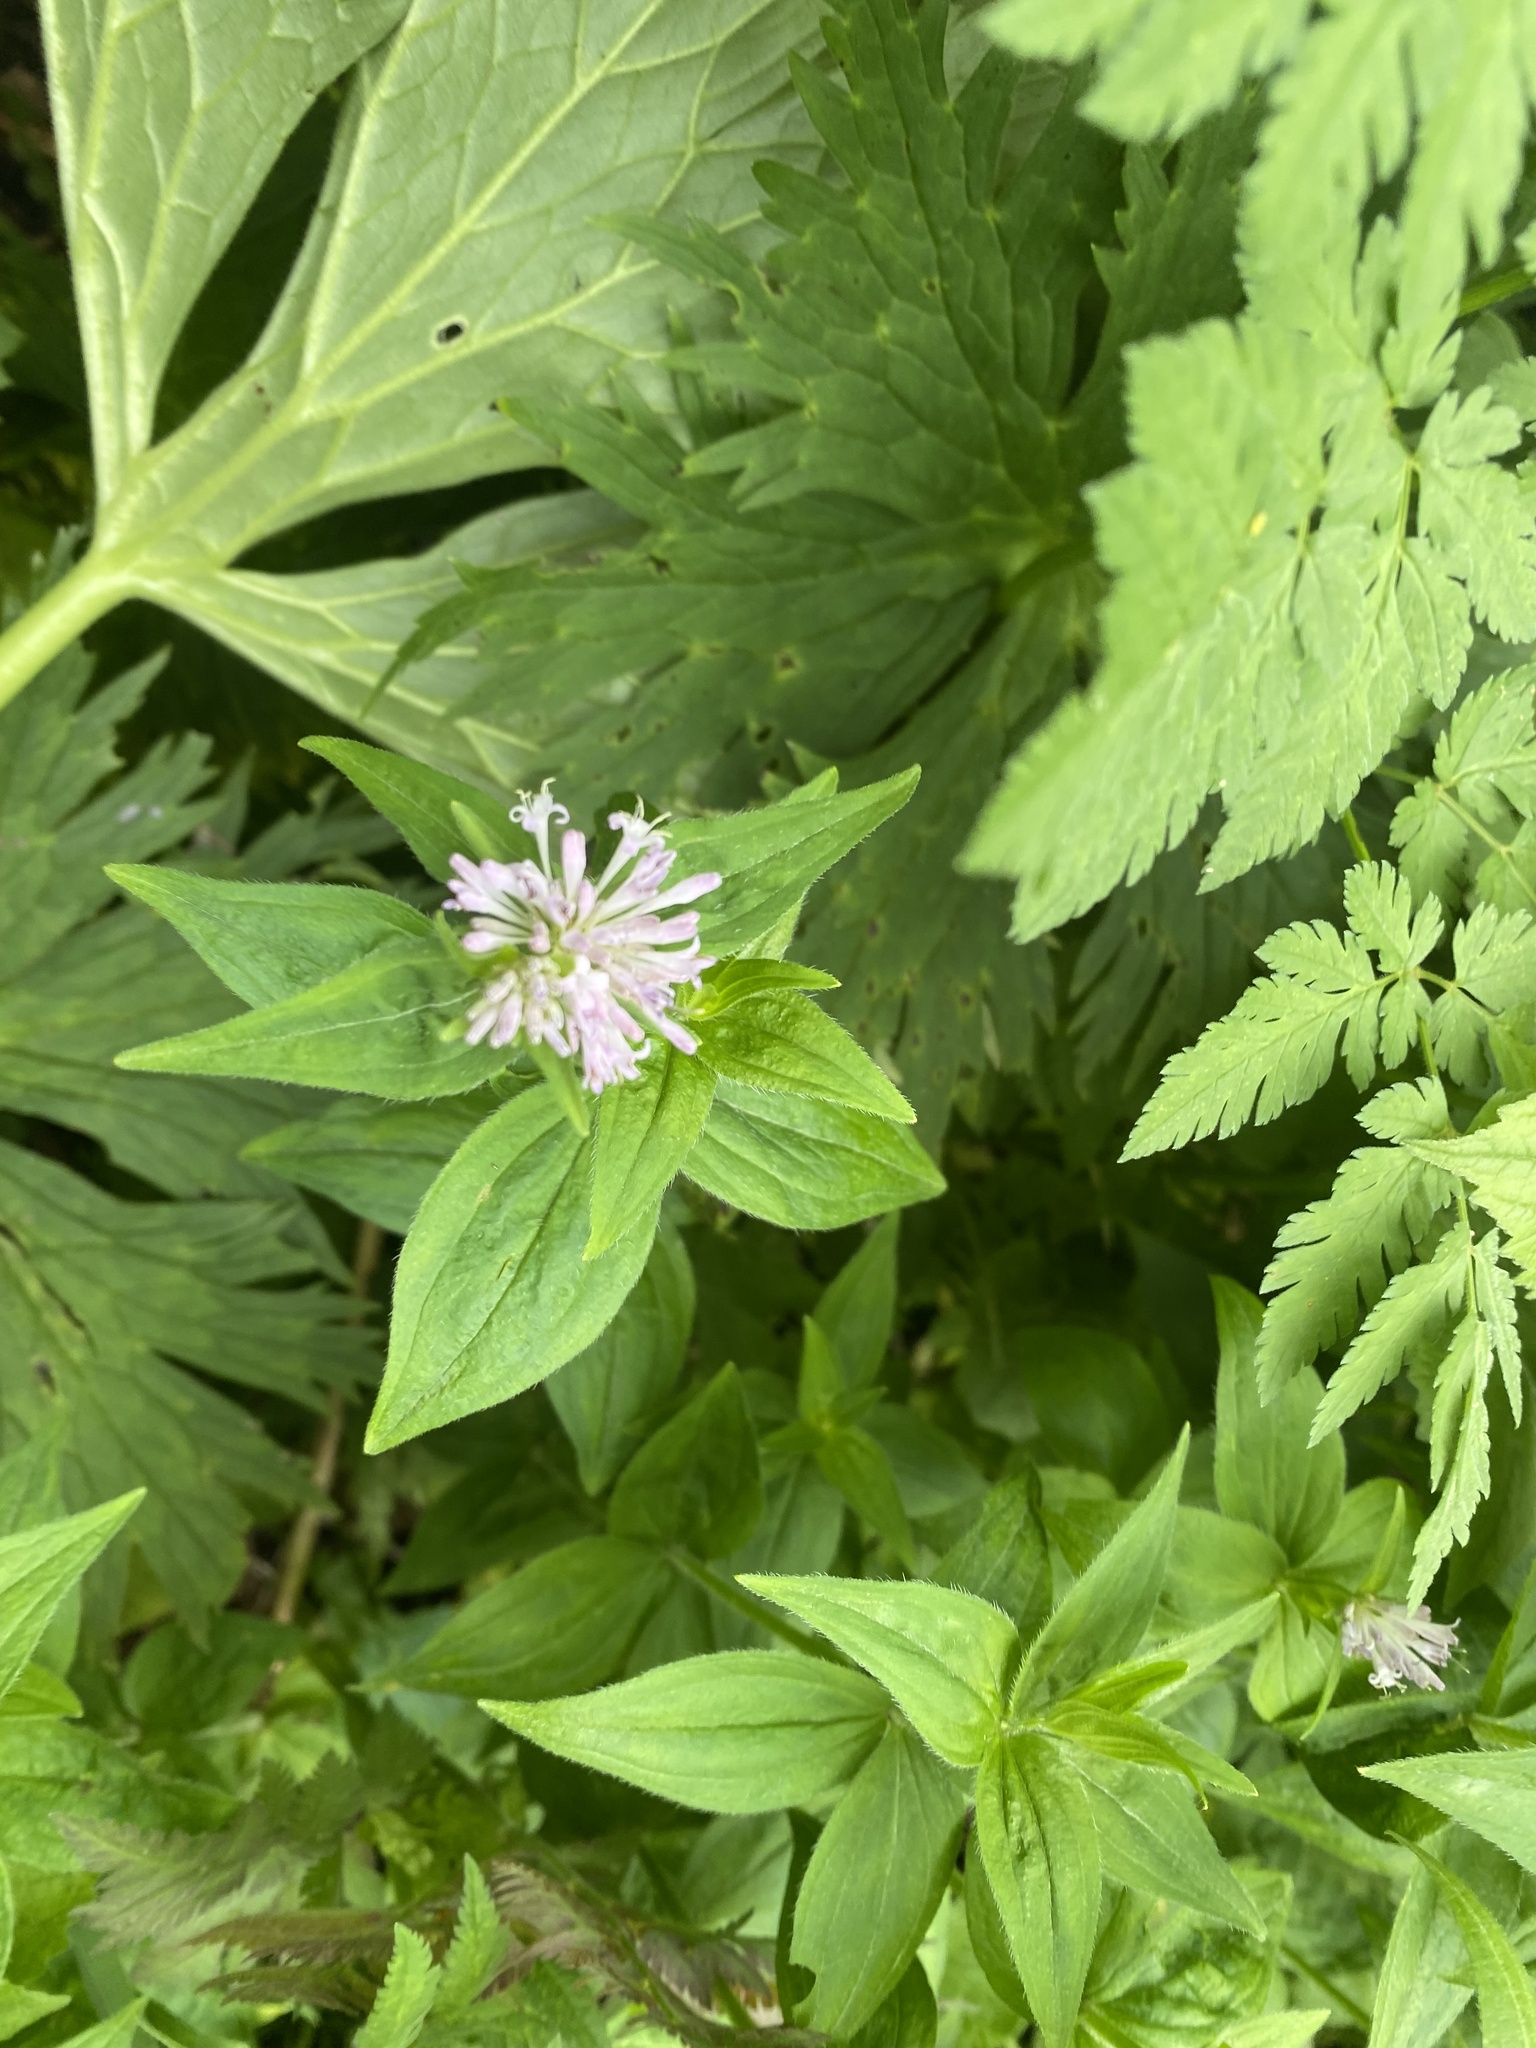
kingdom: Plantae
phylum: Tracheophyta
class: Magnoliopsida
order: Gentianales
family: Rubiaceae
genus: Asperula
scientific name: Asperula taurina
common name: Pink woodruff
